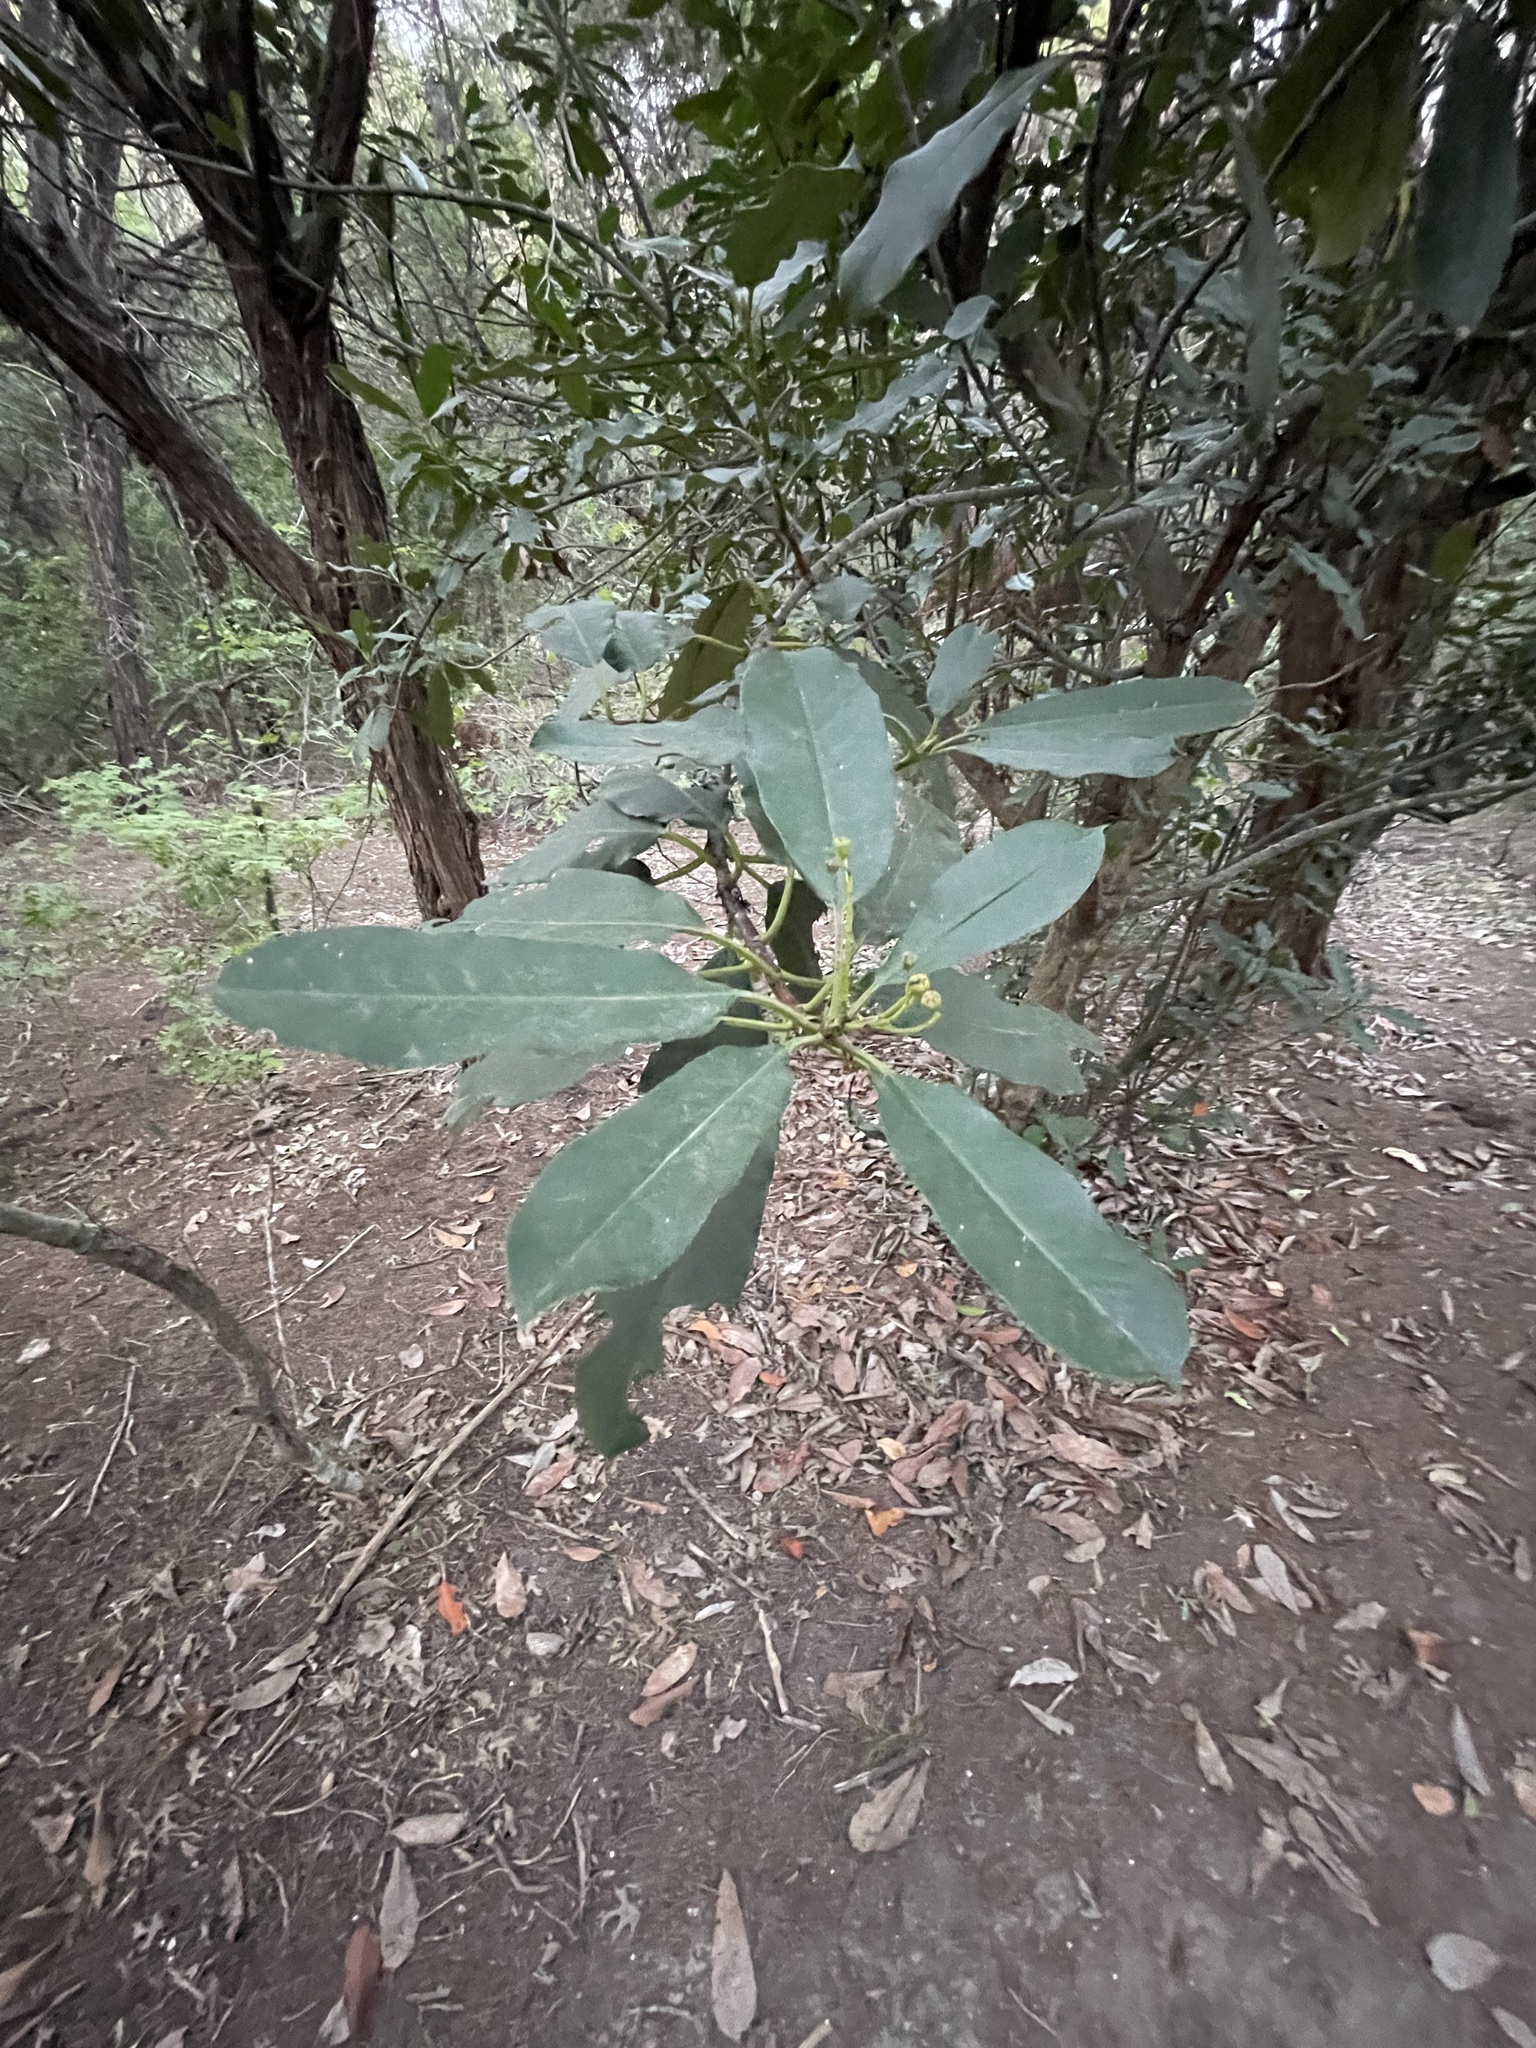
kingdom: Plantae
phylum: Tracheophyta
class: Magnoliopsida
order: Rosales
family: Rosaceae
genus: Photinia
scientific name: Photinia serratifolia
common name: Taiwanese photinia
